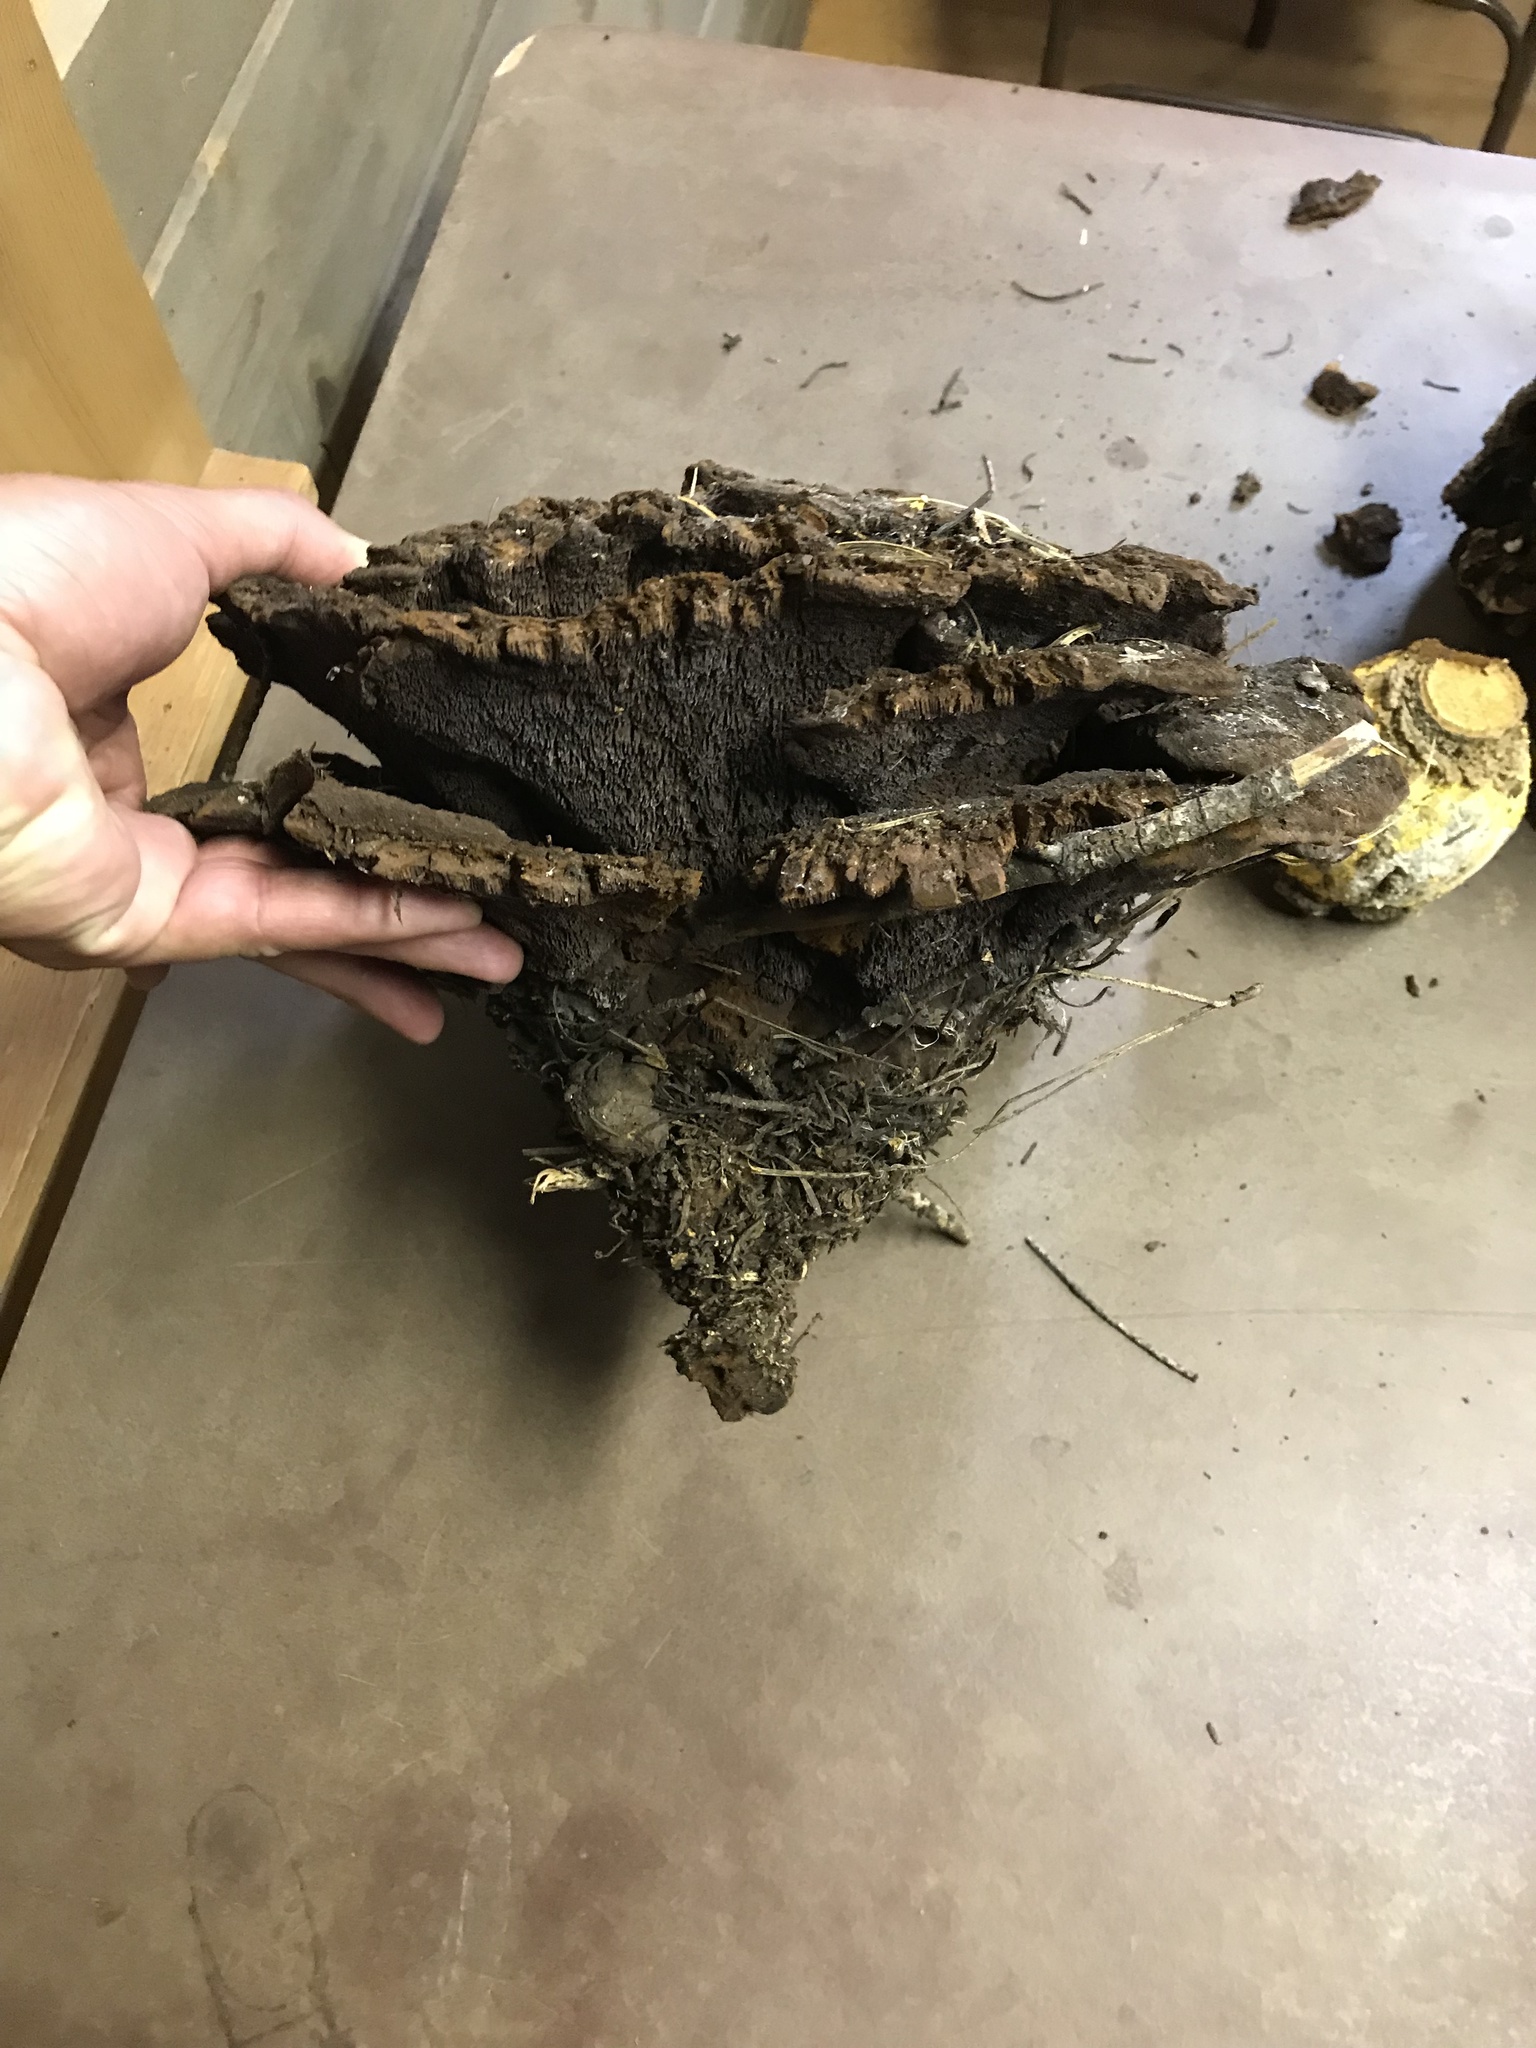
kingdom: Fungi
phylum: Basidiomycota
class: Agaricomycetes
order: Polyporales
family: Laetiporaceae
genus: Phaeolus
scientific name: Phaeolus schweinitzii
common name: Dyer's mazegill
